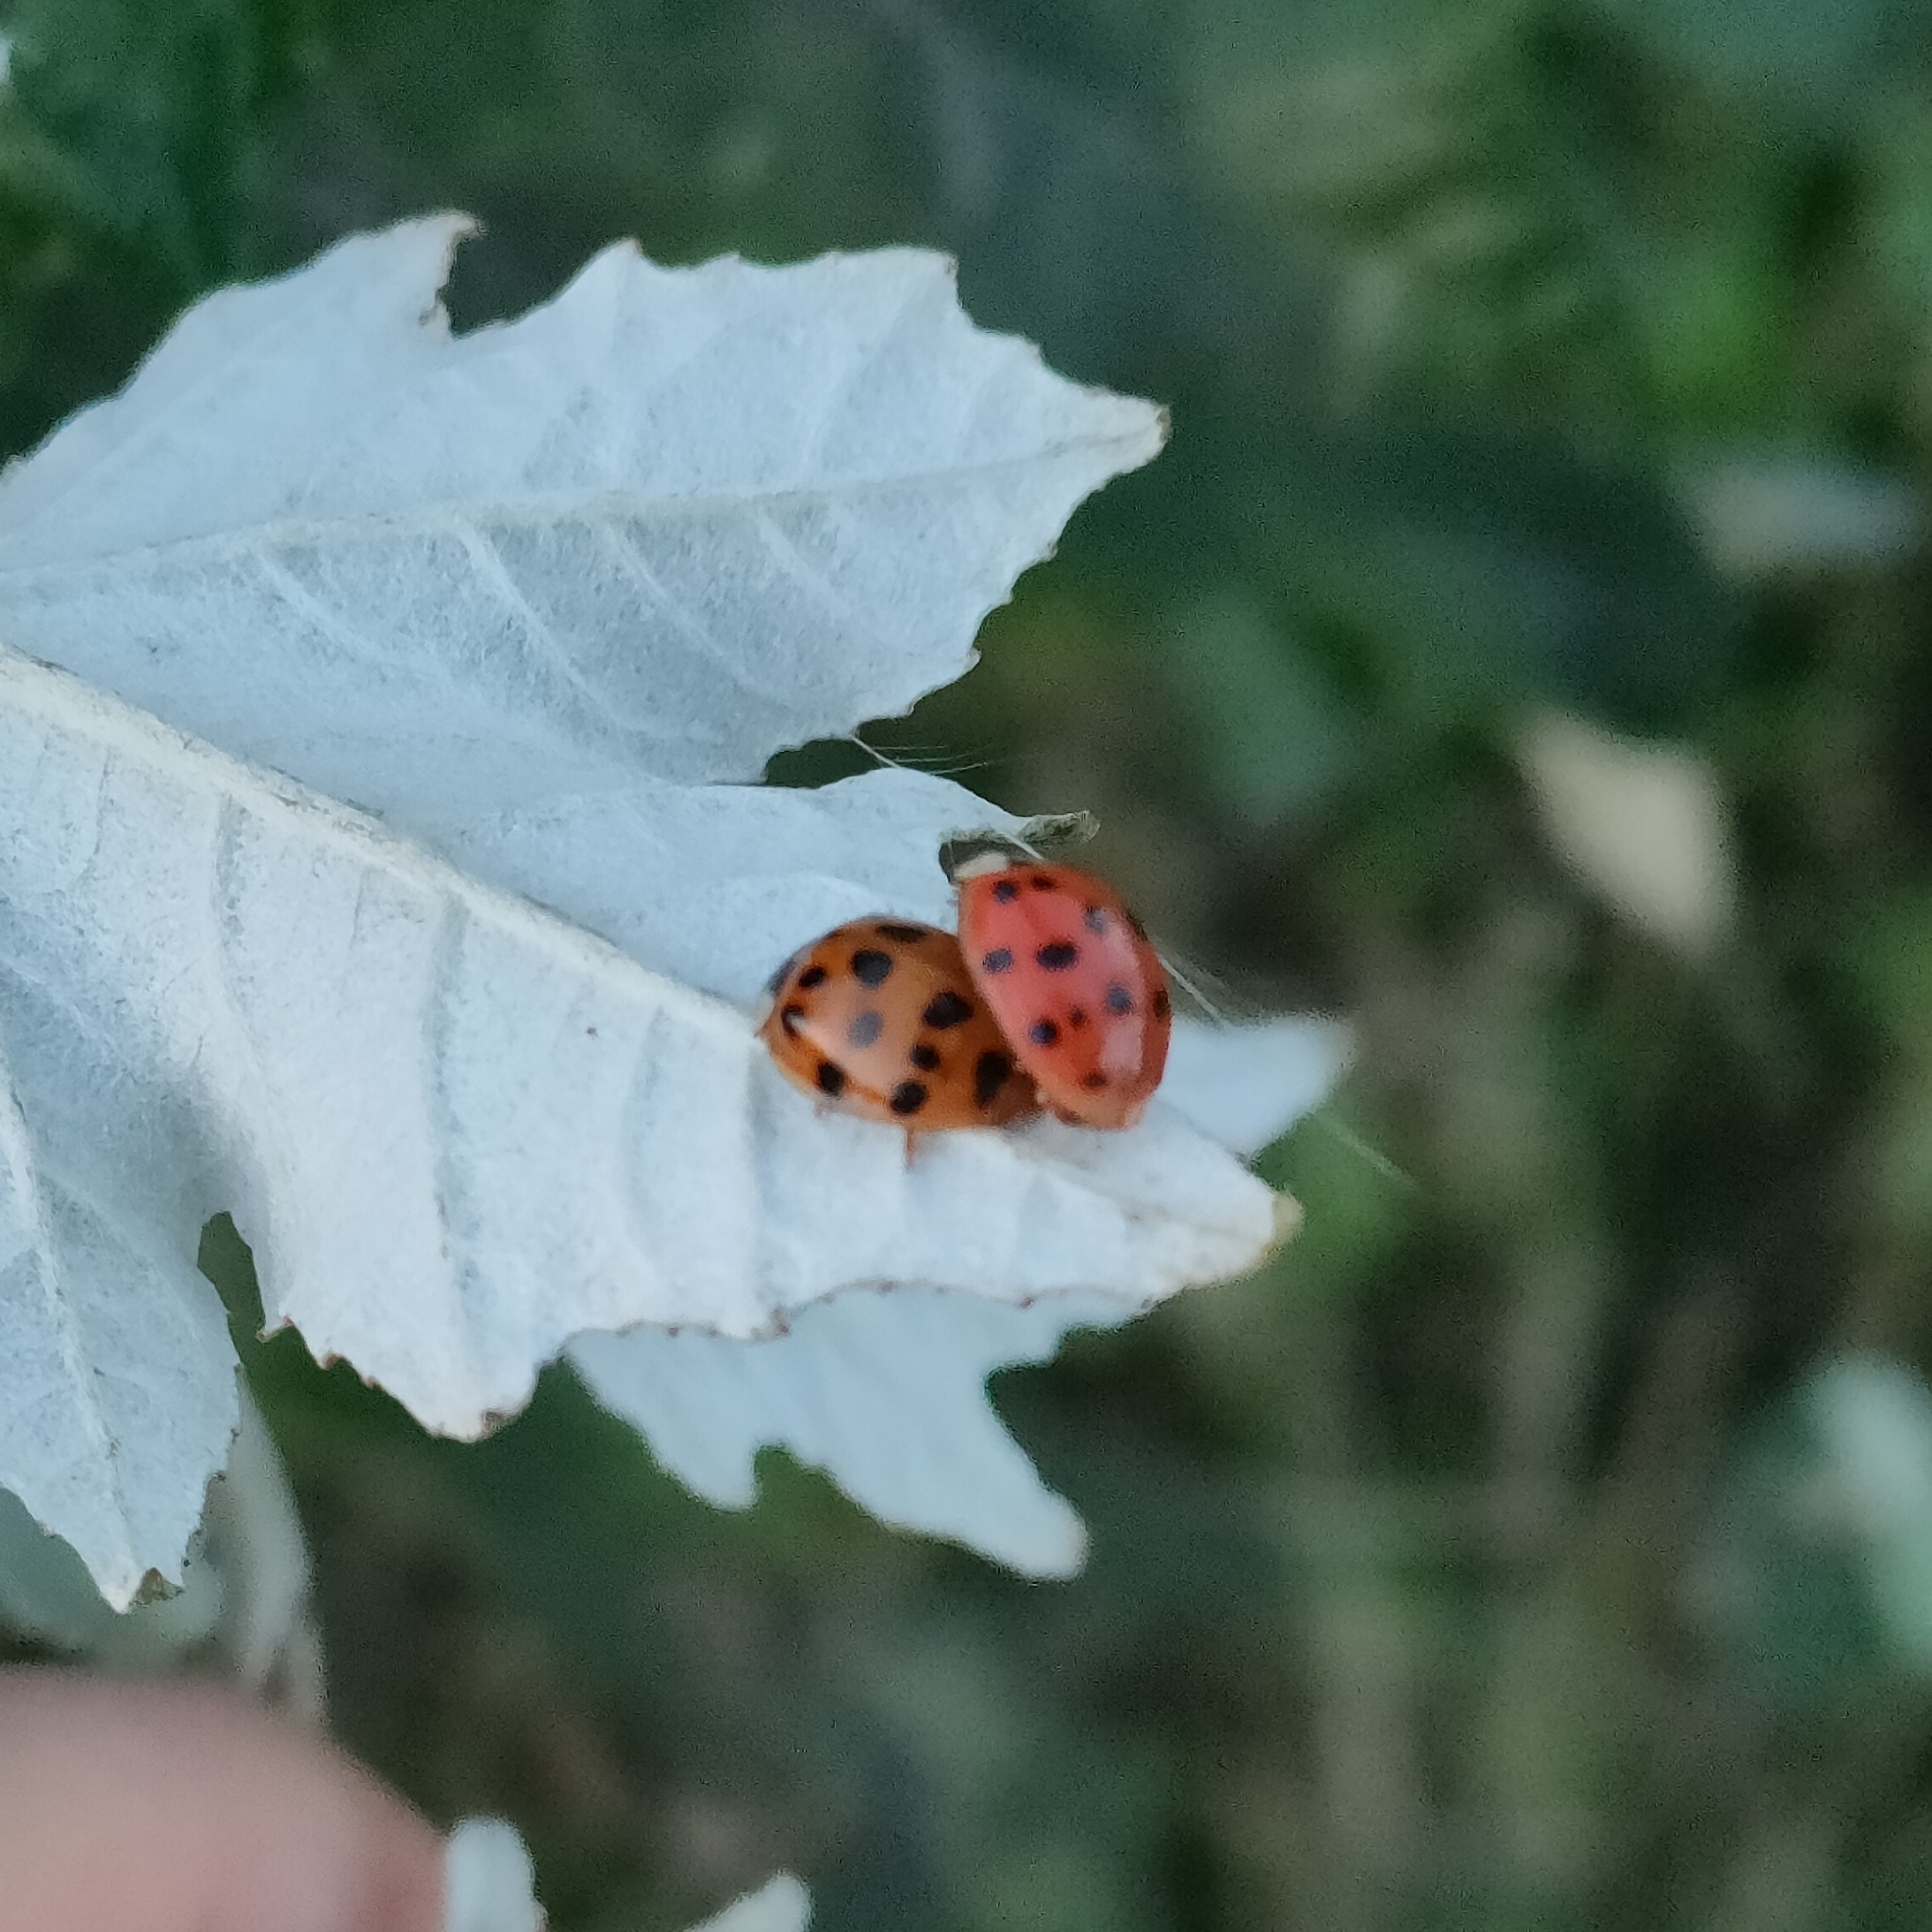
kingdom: Animalia
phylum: Arthropoda
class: Insecta
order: Coleoptera
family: Coccinellidae
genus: Harmonia
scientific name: Harmonia axyridis
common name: Harlequin ladybird
